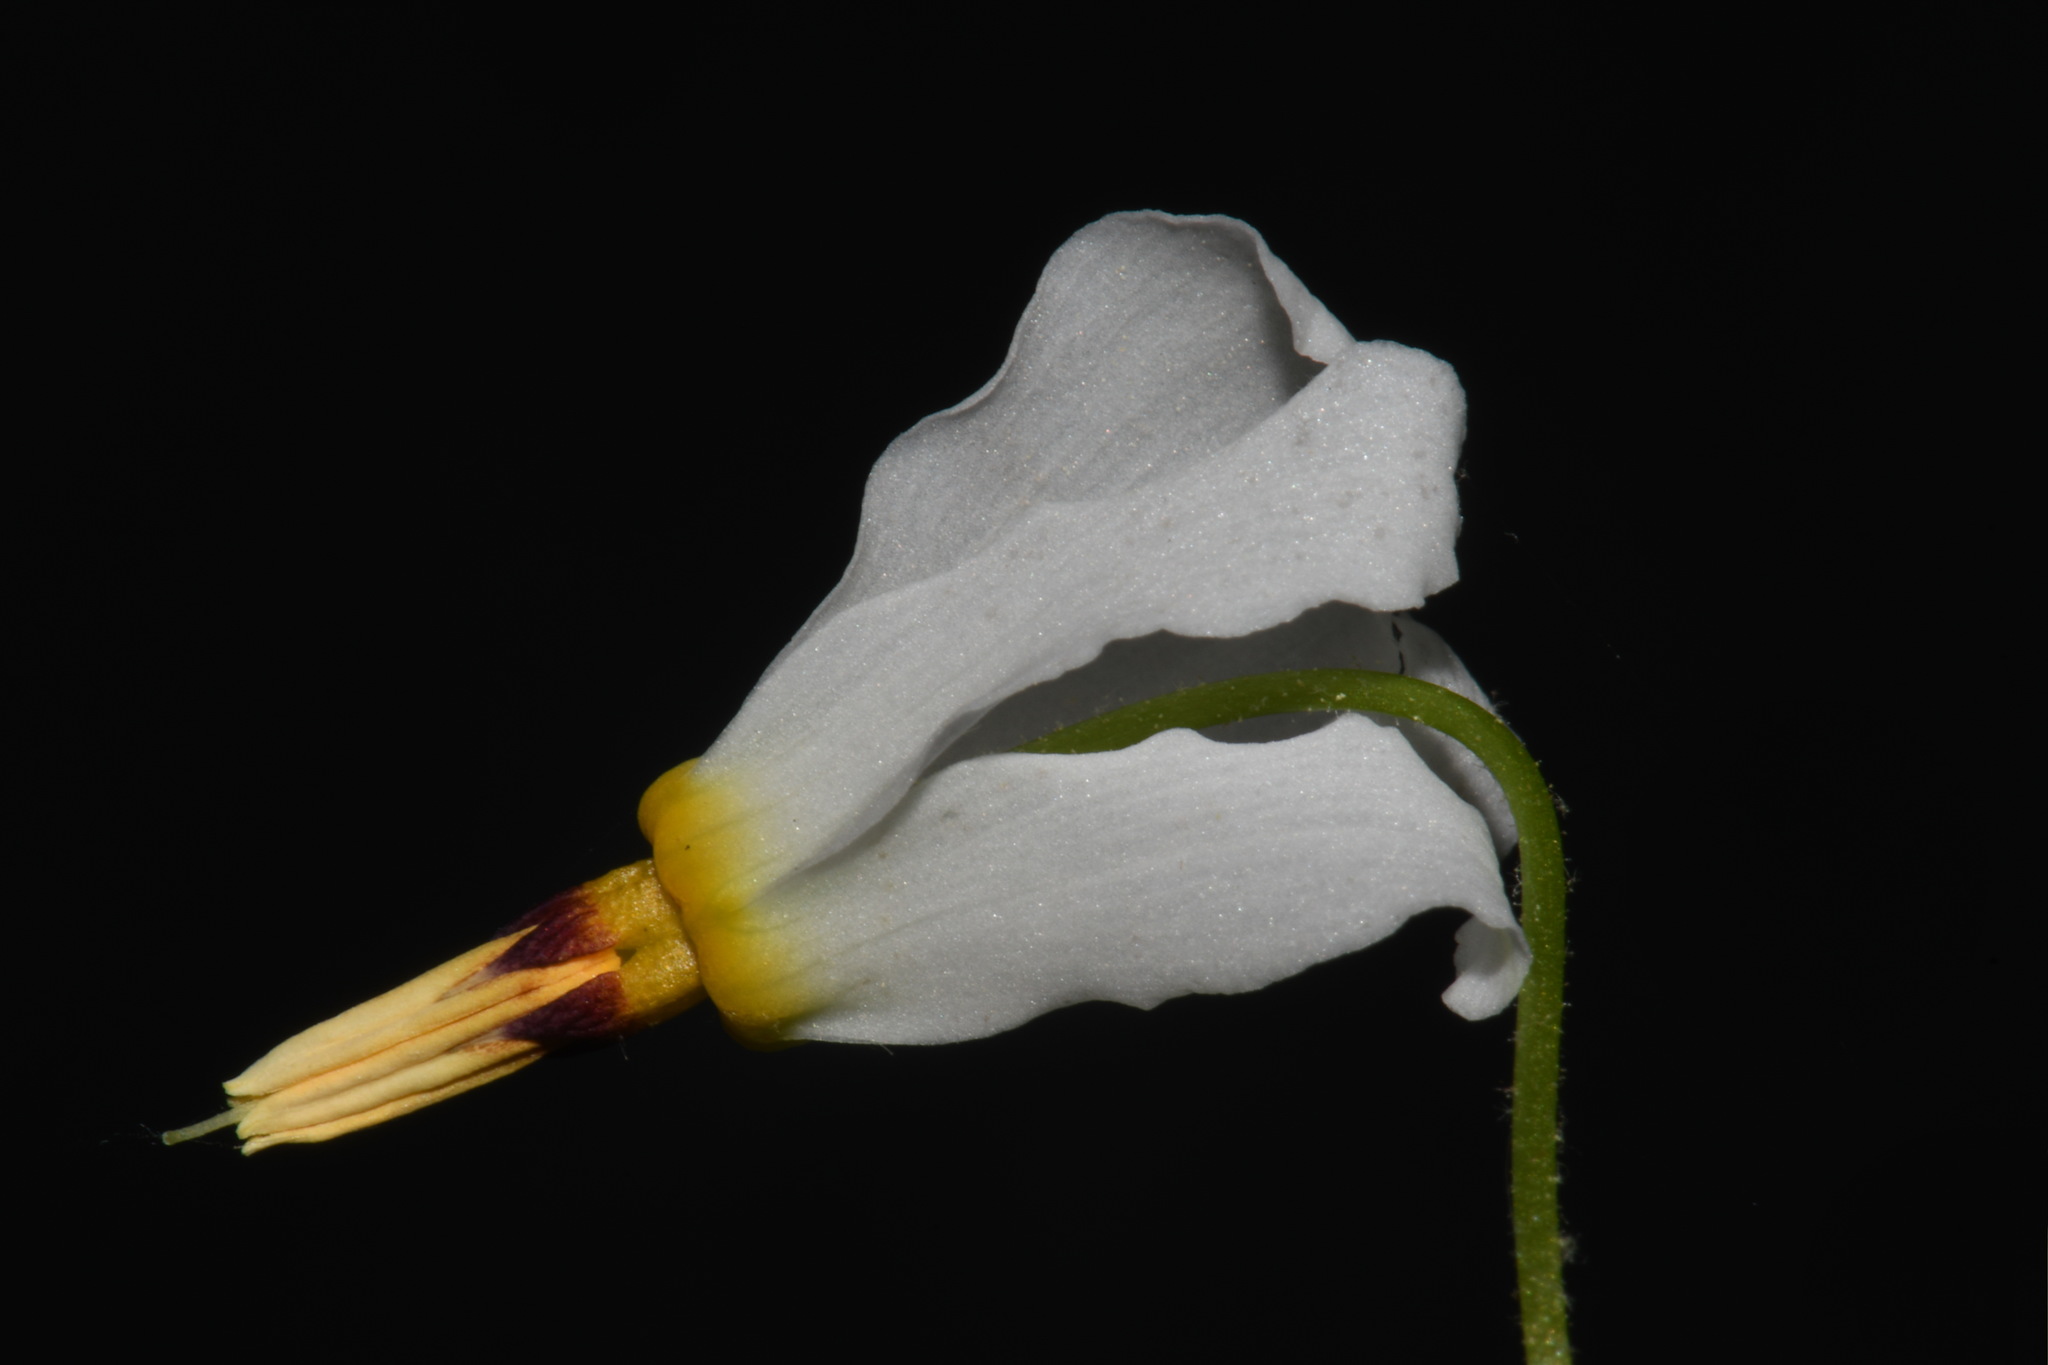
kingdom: Plantae
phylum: Tracheophyta
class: Magnoliopsida
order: Ericales
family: Primulaceae
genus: Dodecatheon
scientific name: Dodecatheon frenchii
